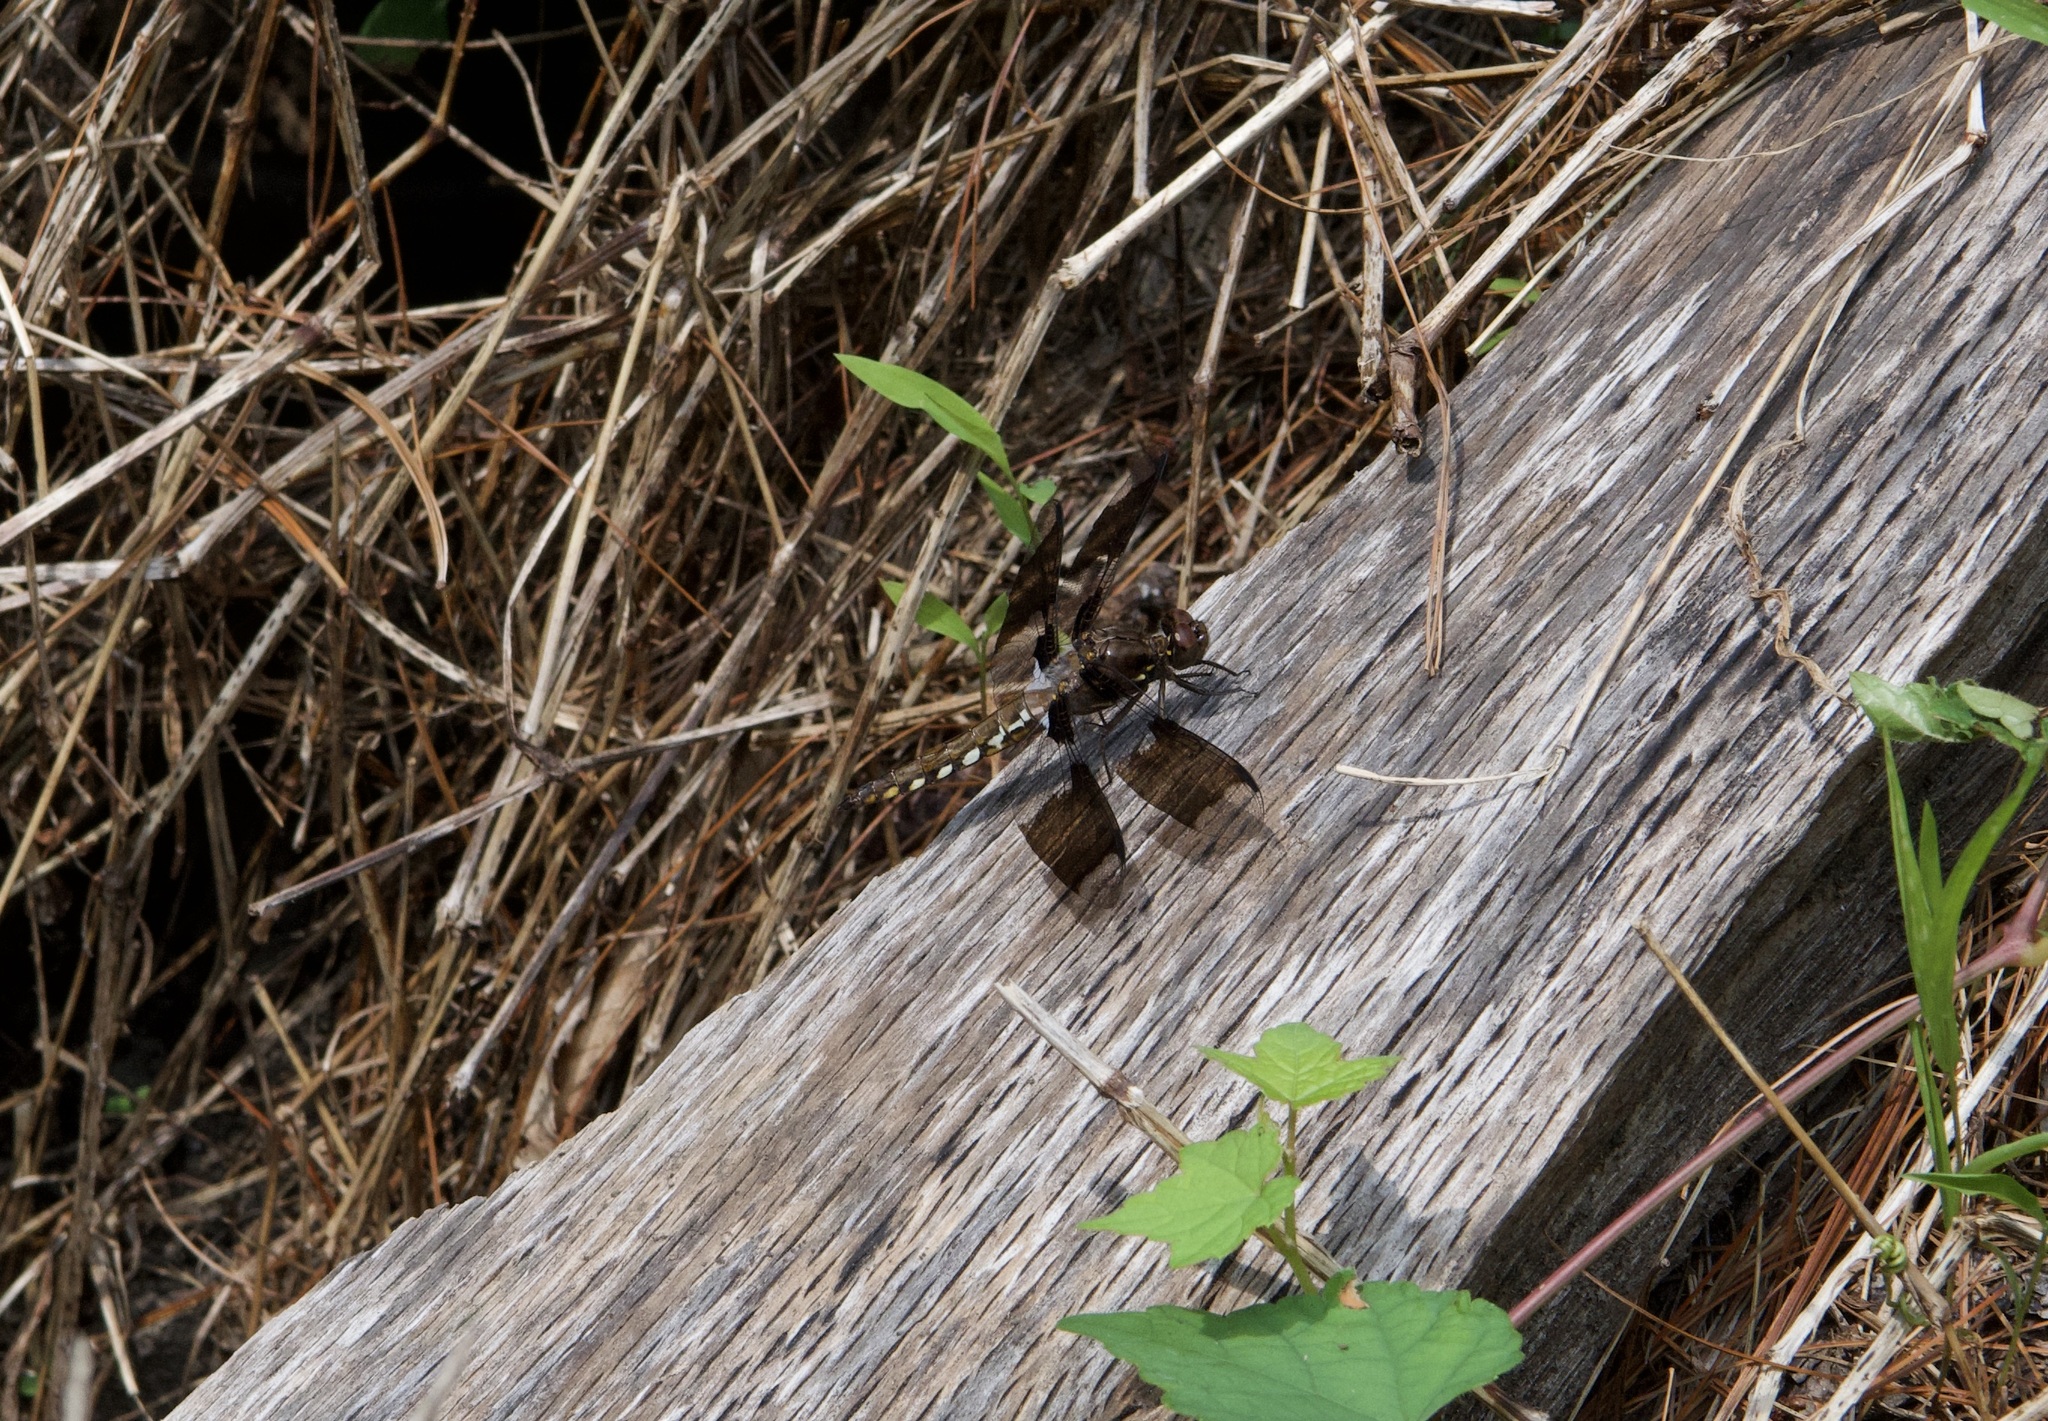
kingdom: Animalia
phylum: Arthropoda
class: Insecta
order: Odonata
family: Libellulidae
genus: Plathemis
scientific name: Plathemis lydia
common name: Common whitetail
